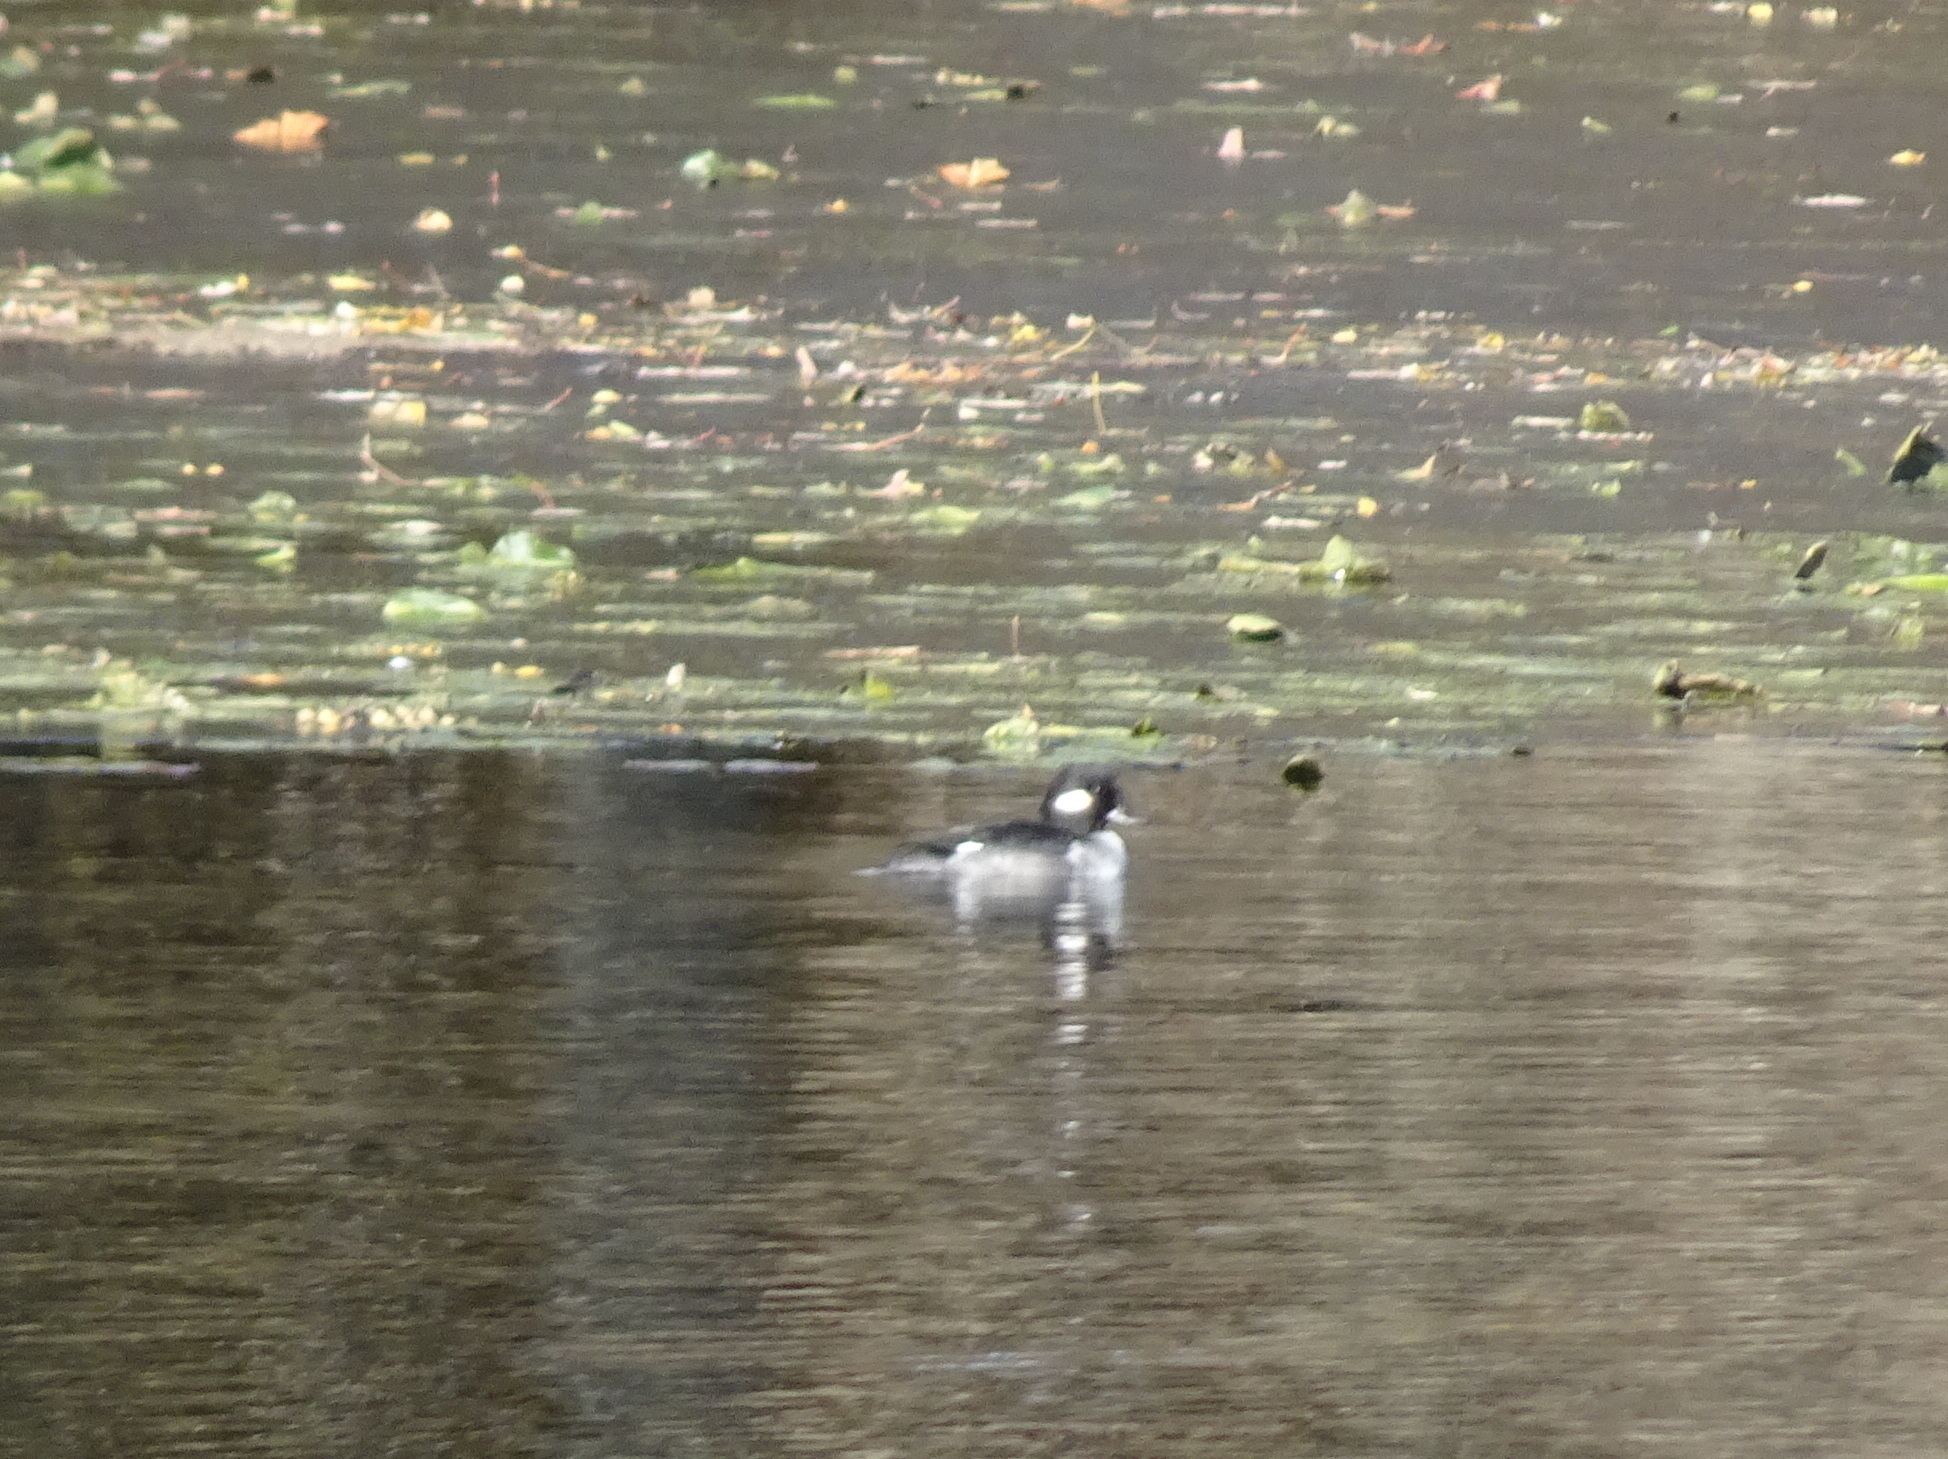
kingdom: Animalia
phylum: Chordata
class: Aves
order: Anseriformes
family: Anatidae
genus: Bucephala
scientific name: Bucephala albeola
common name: Bufflehead
